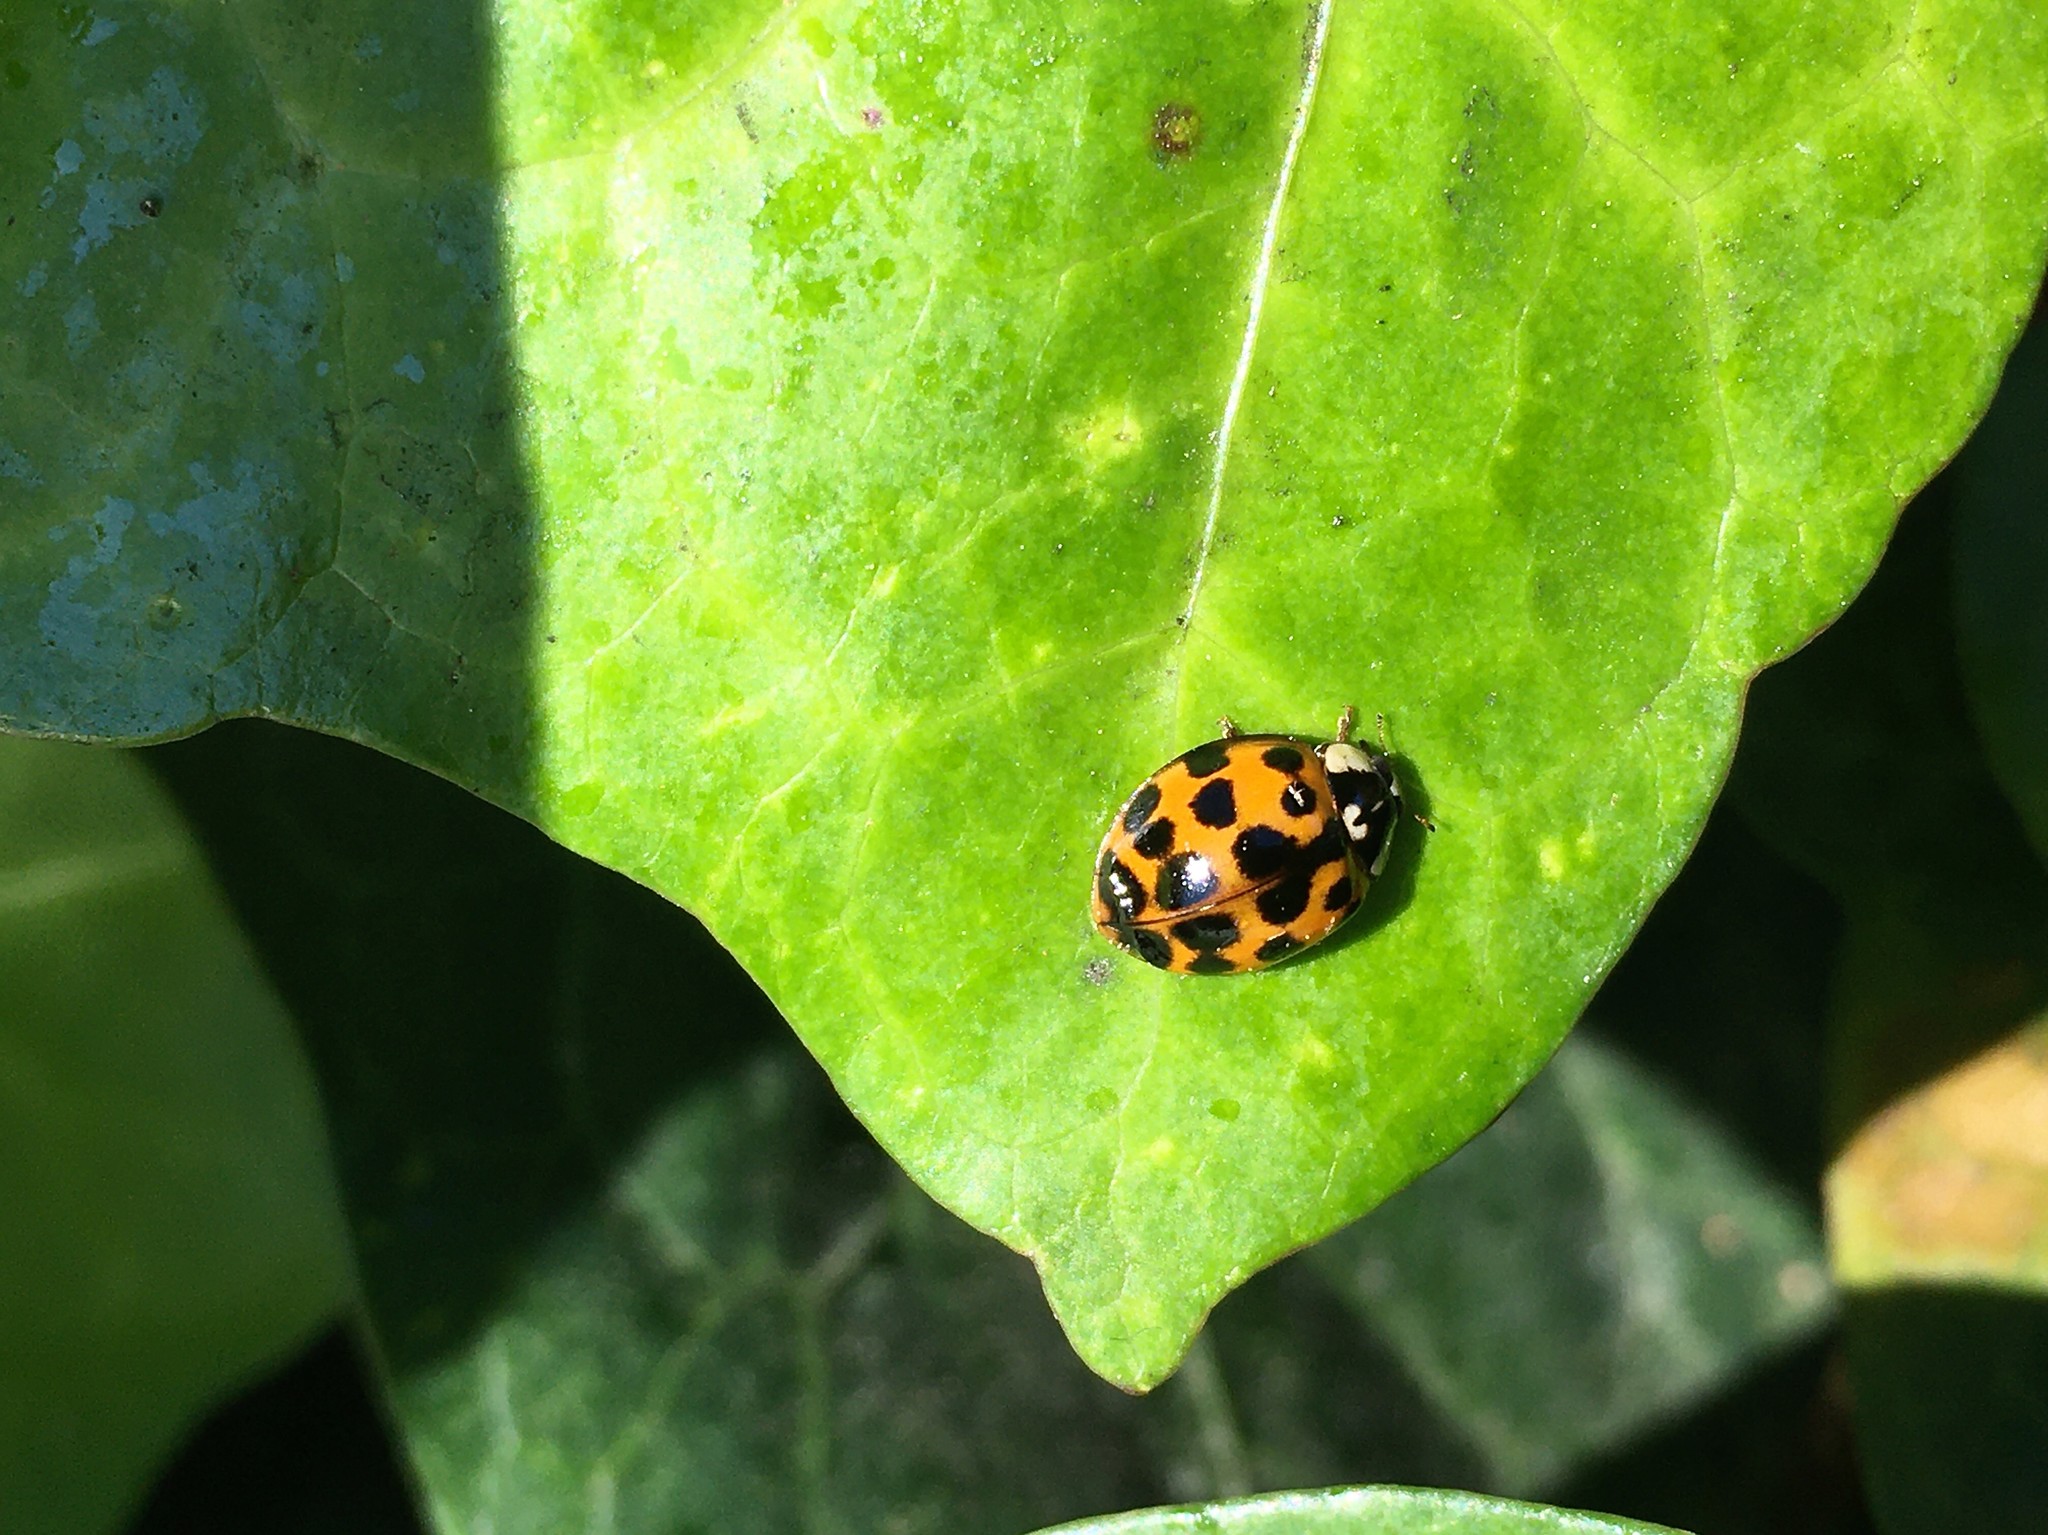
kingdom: Animalia
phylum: Arthropoda
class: Insecta
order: Coleoptera
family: Coccinellidae
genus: Harmonia
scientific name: Harmonia axyridis
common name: Harlequin ladybird
